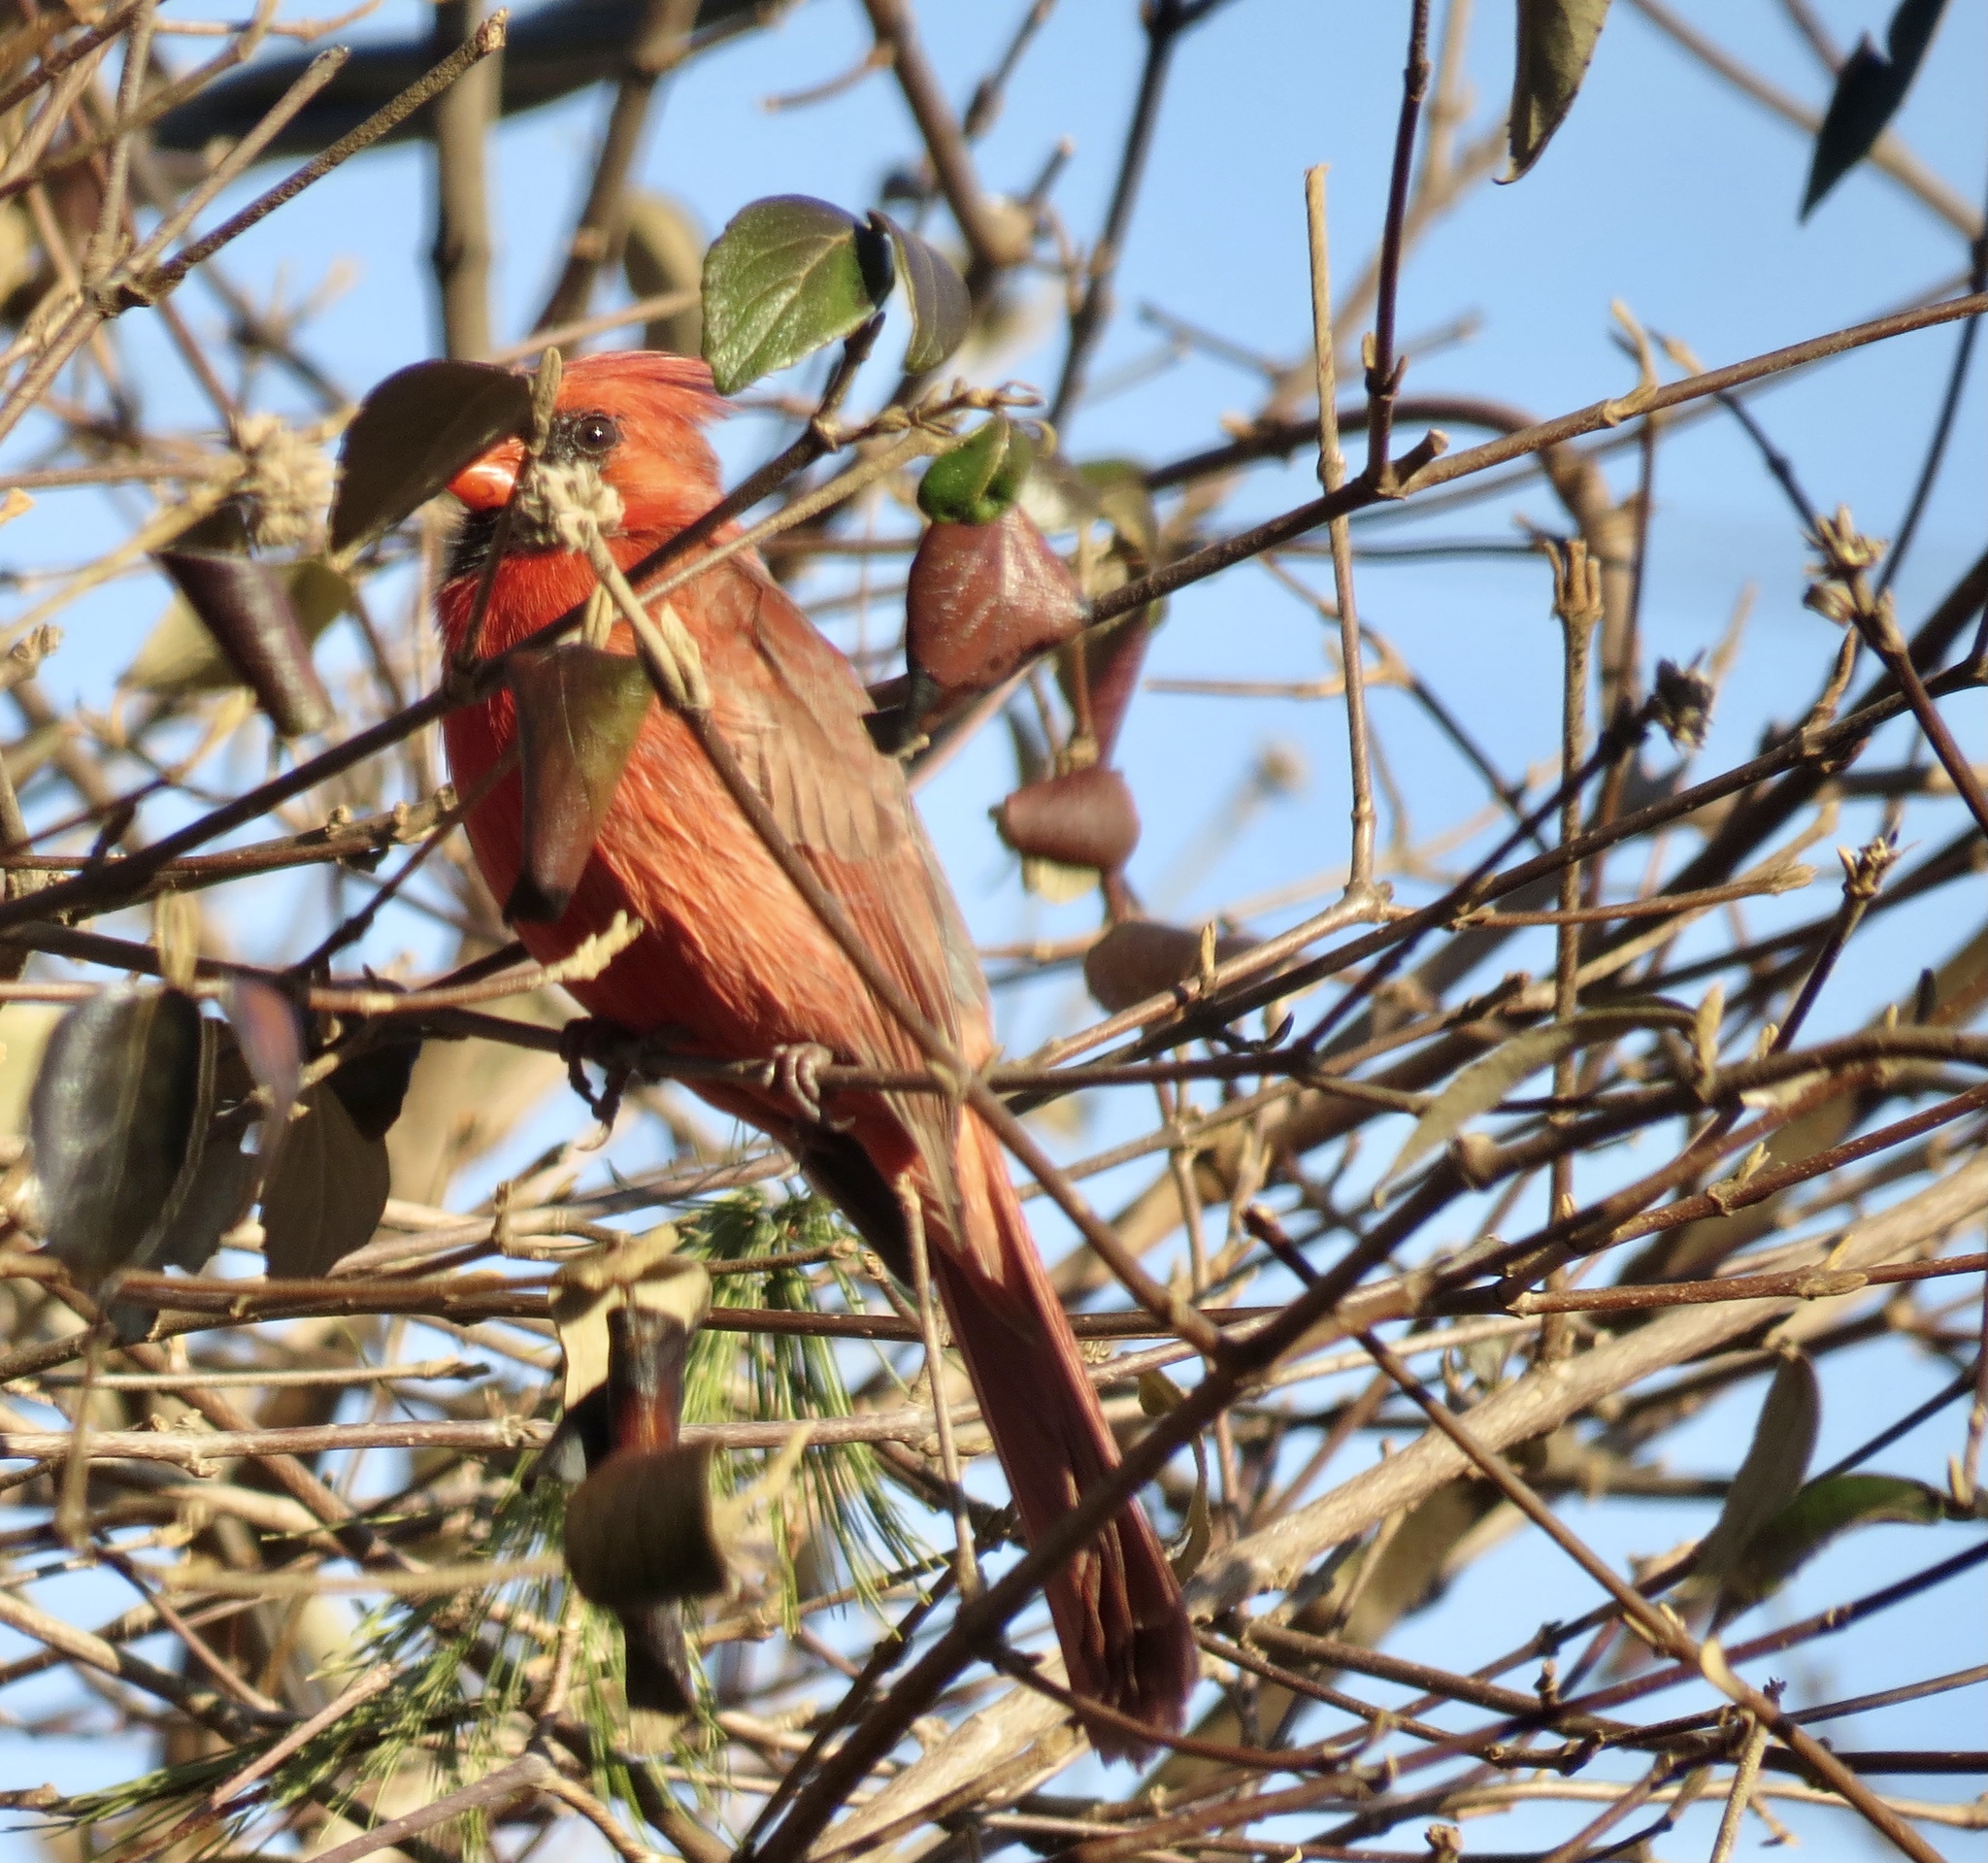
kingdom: Animalia
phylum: Chordata
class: Aves
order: Passeriformes
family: Cardinalidae
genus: Cardinalis
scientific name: Cardinalis cardinalis
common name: Northern cardinal
